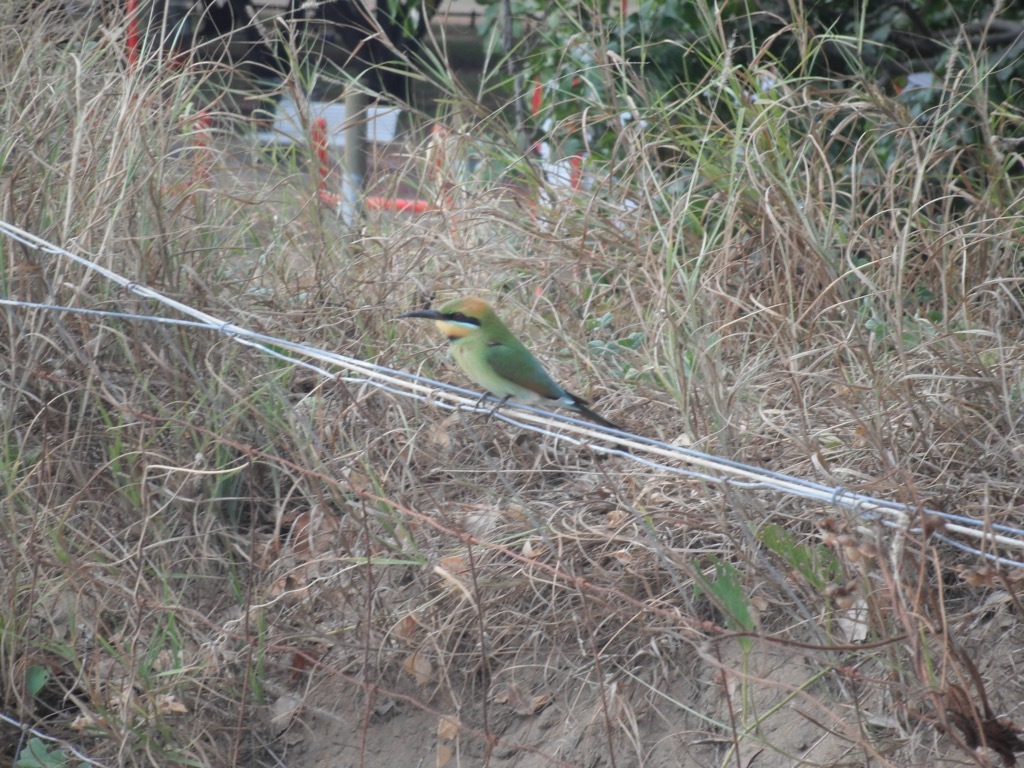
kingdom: Animalia
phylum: Chordata
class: Aves
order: Coraciiformes
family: Meropidae
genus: Merops
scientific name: Merops ornatus
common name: Rainbow bee-eater
